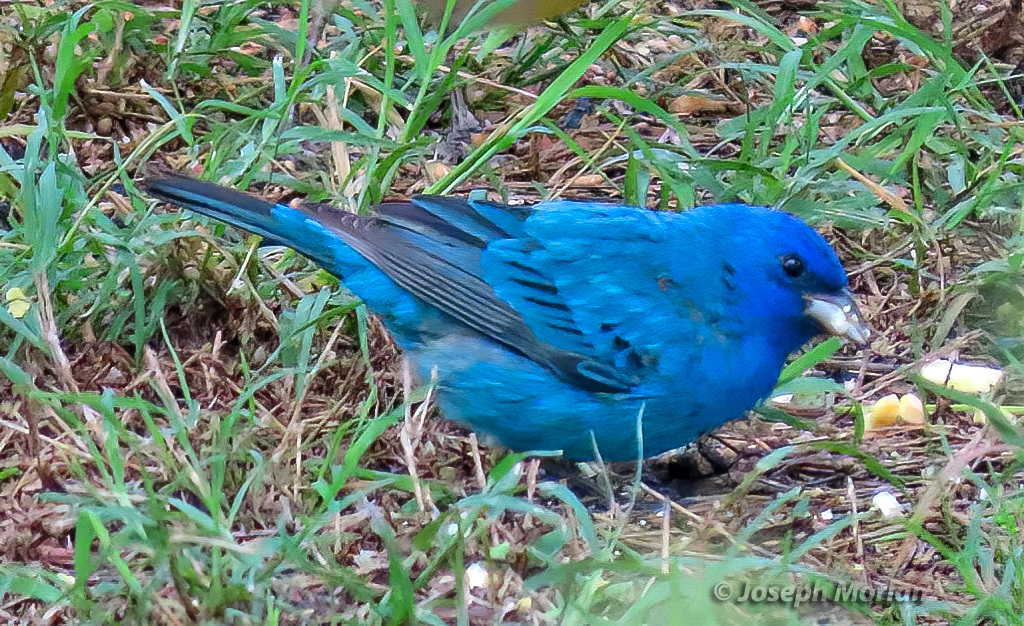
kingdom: Animalia
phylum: Chordata
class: Aves
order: Passeriformes
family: Cardinalidae
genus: Passerina
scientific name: Passerina cyanea
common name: Indigo bunting
